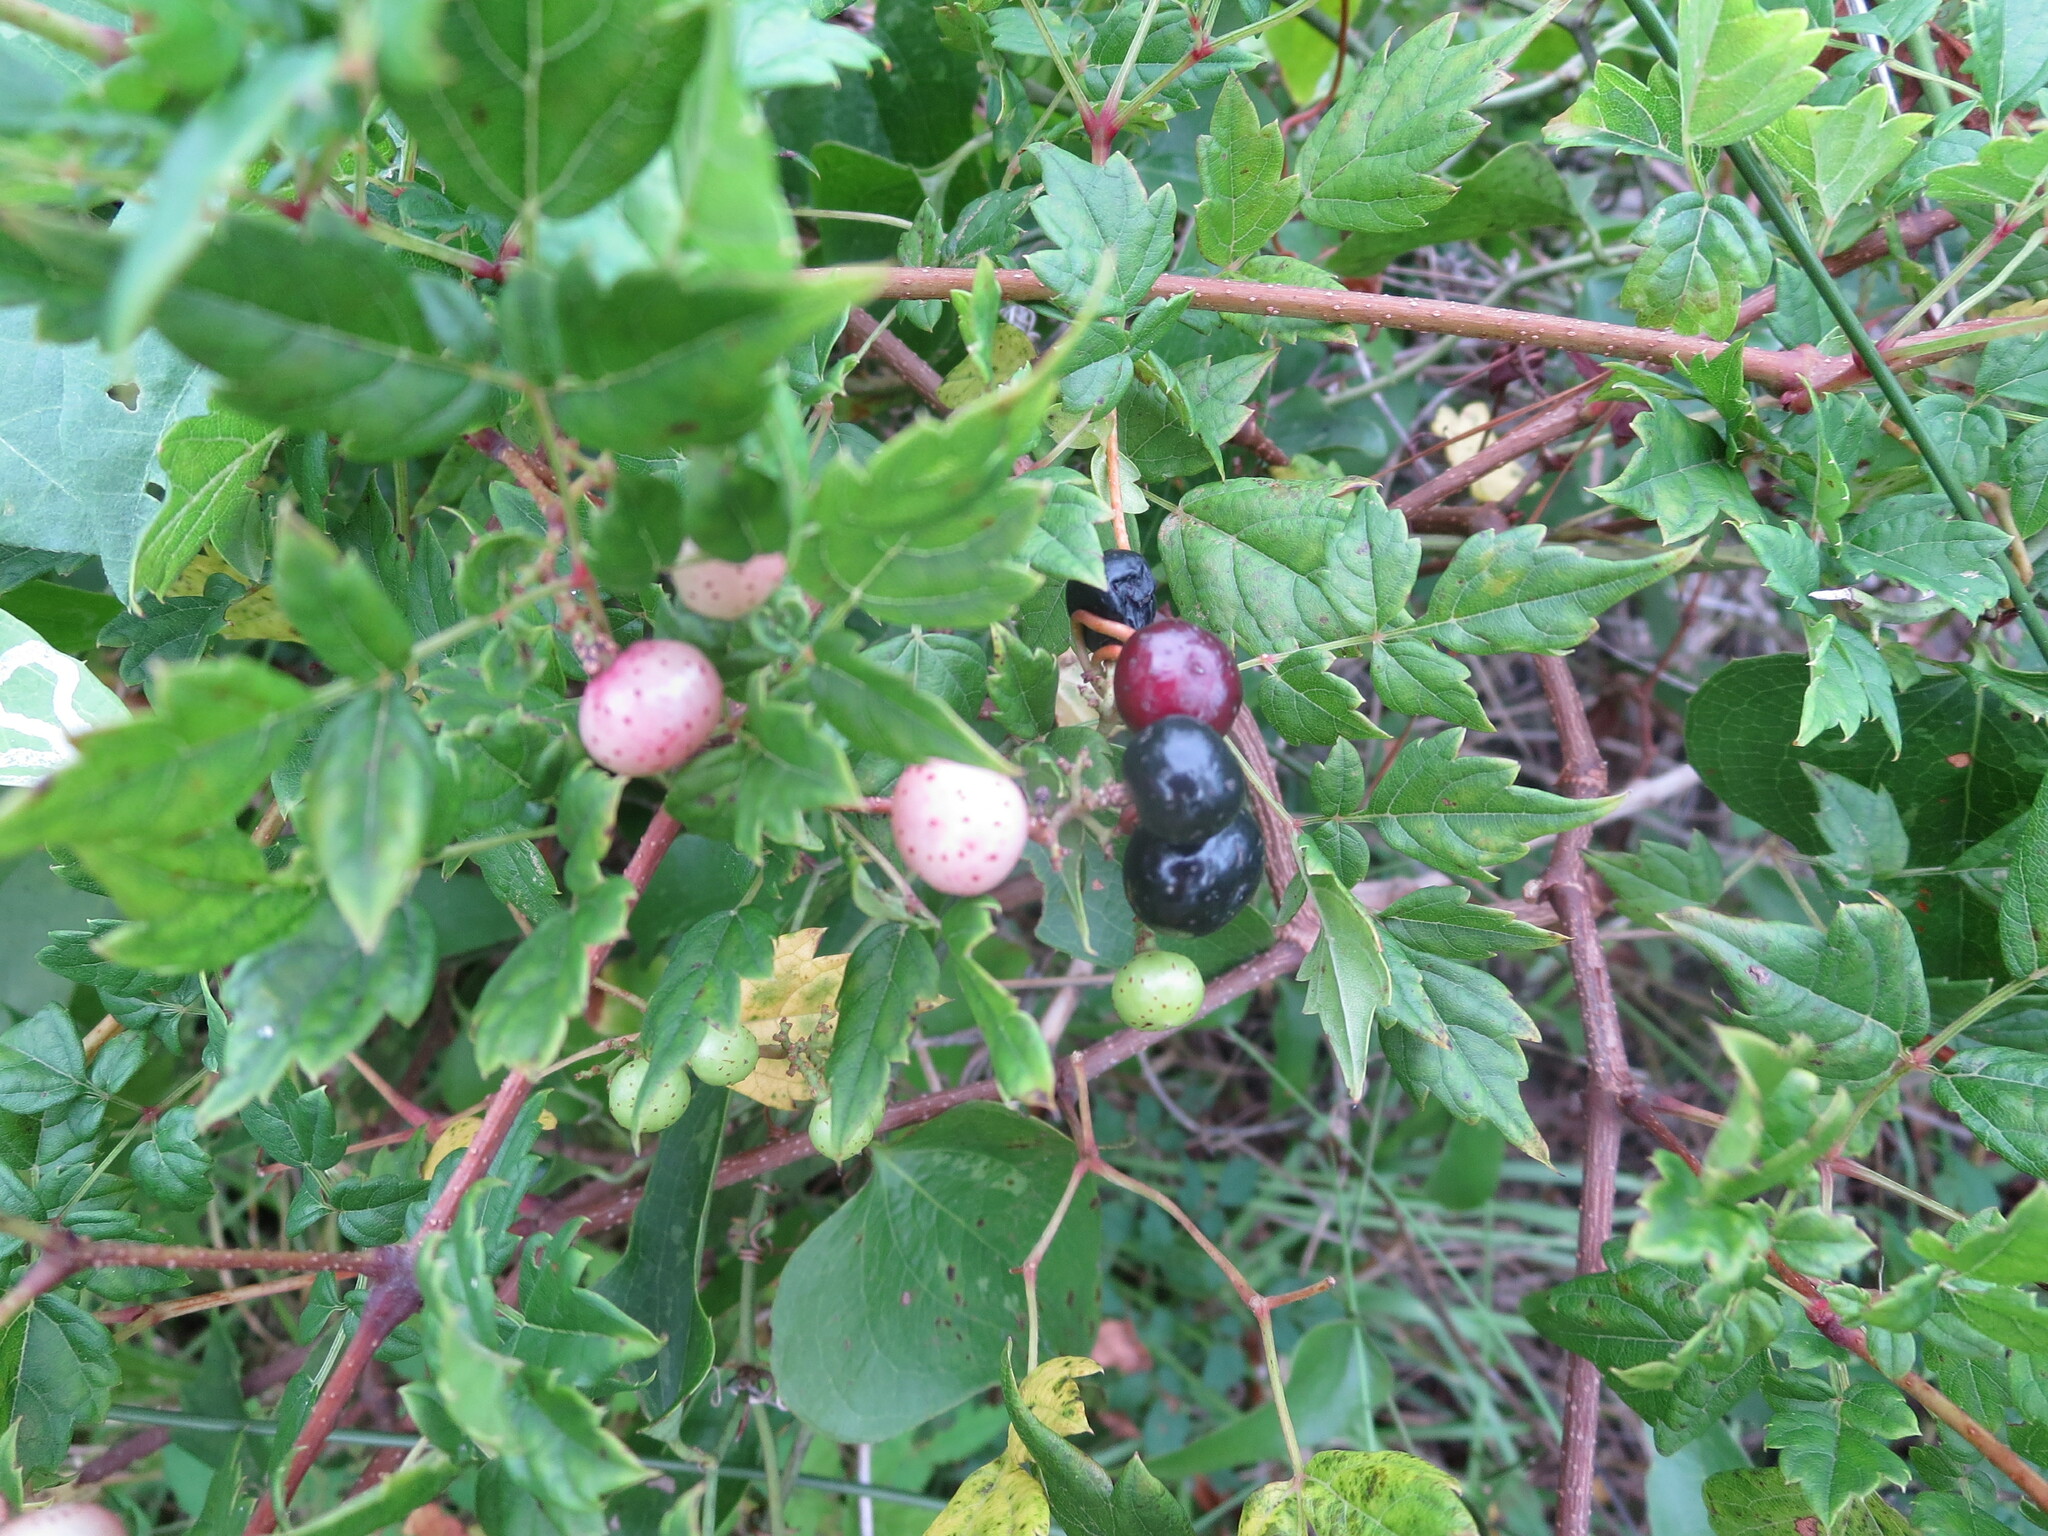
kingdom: Plantae
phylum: Tracheophyta
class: Magnoliopsida
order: Vitales
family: Vitaceae
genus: Nekemias
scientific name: Nekemias arborea
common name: Peppervine
